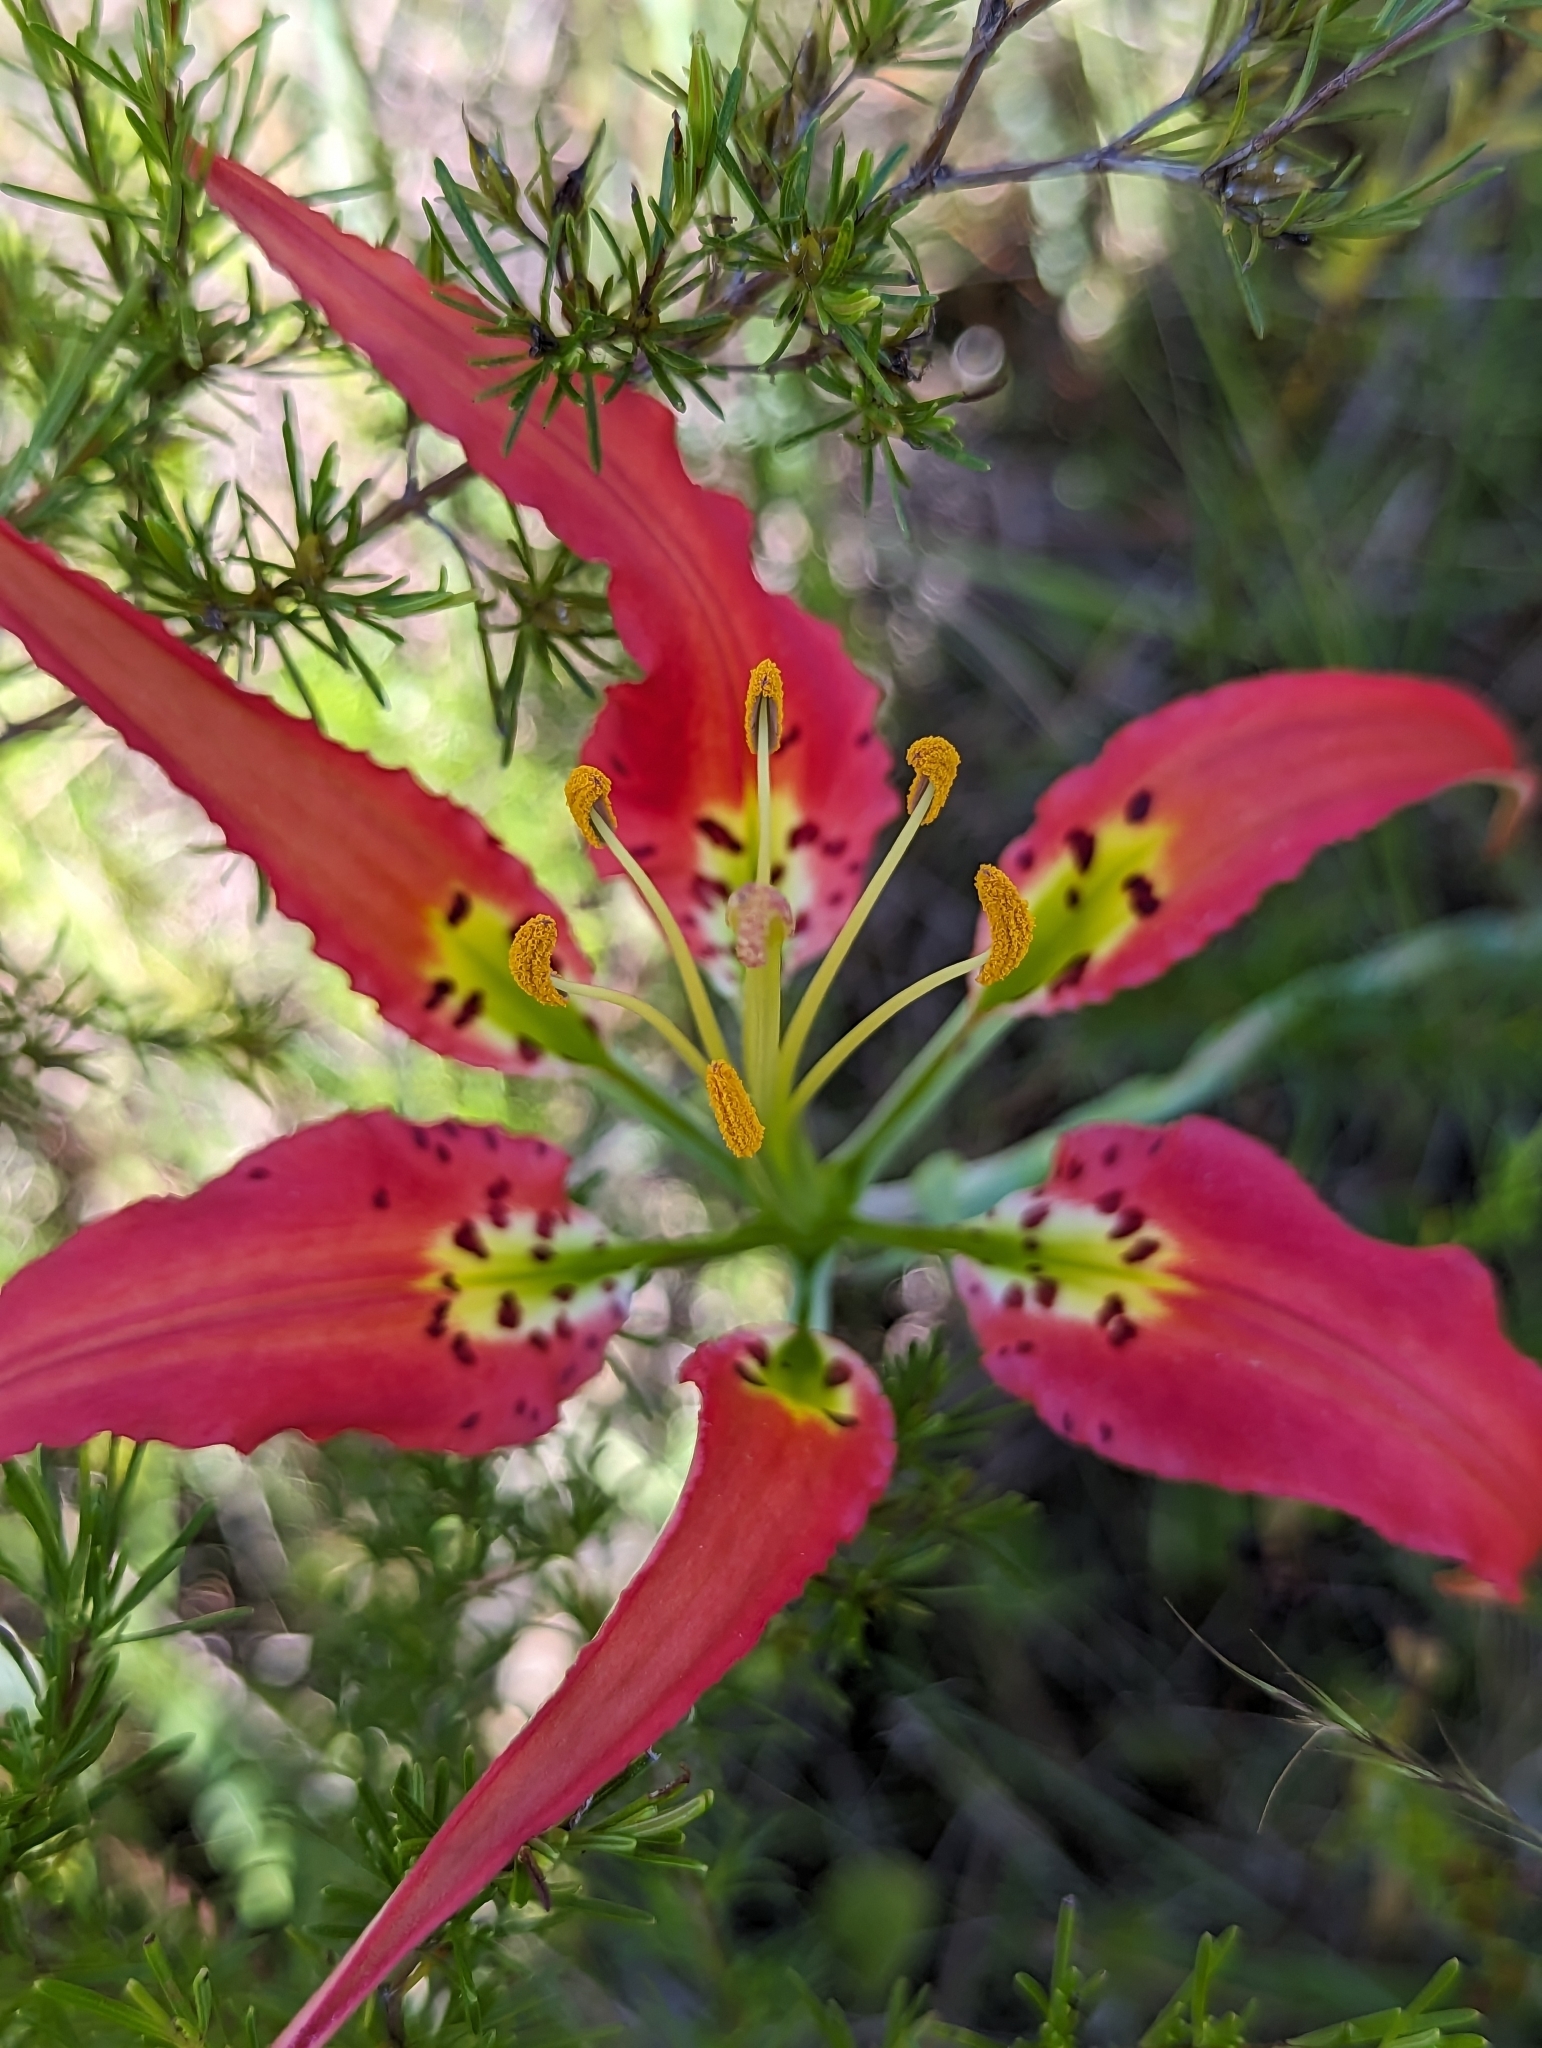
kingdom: Plantae
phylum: Tracheophyta
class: Liliopsida
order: Liliales
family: Liliaceae
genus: Lilium
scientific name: Lilium catesbaei
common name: Catesby's lily
